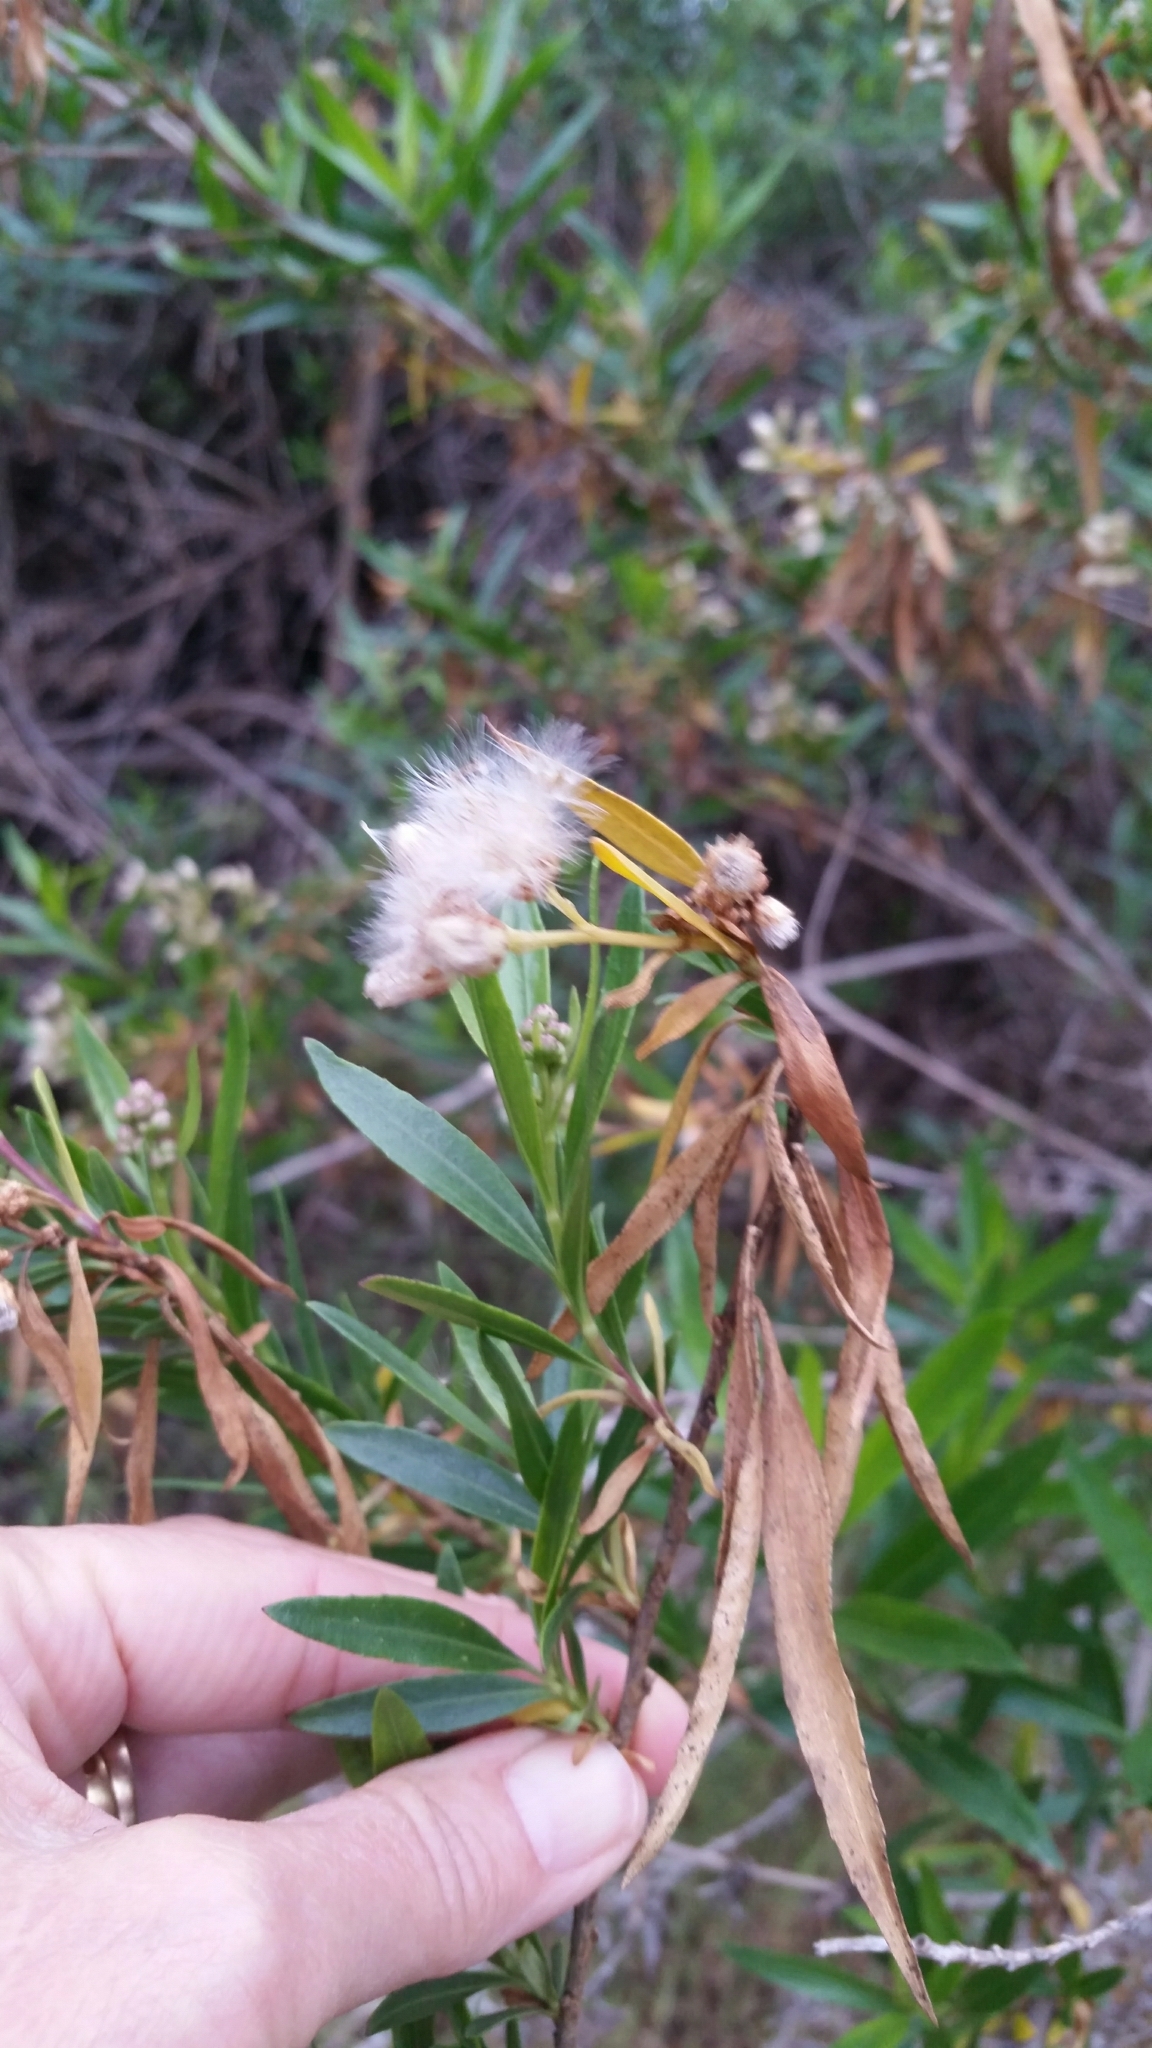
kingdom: Plantae
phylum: Tracheophyta
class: Magnoliopsida
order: Asterales
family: Asteraceae
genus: Baccharis
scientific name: Baccharis salicifolia
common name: Sticky baccharis
